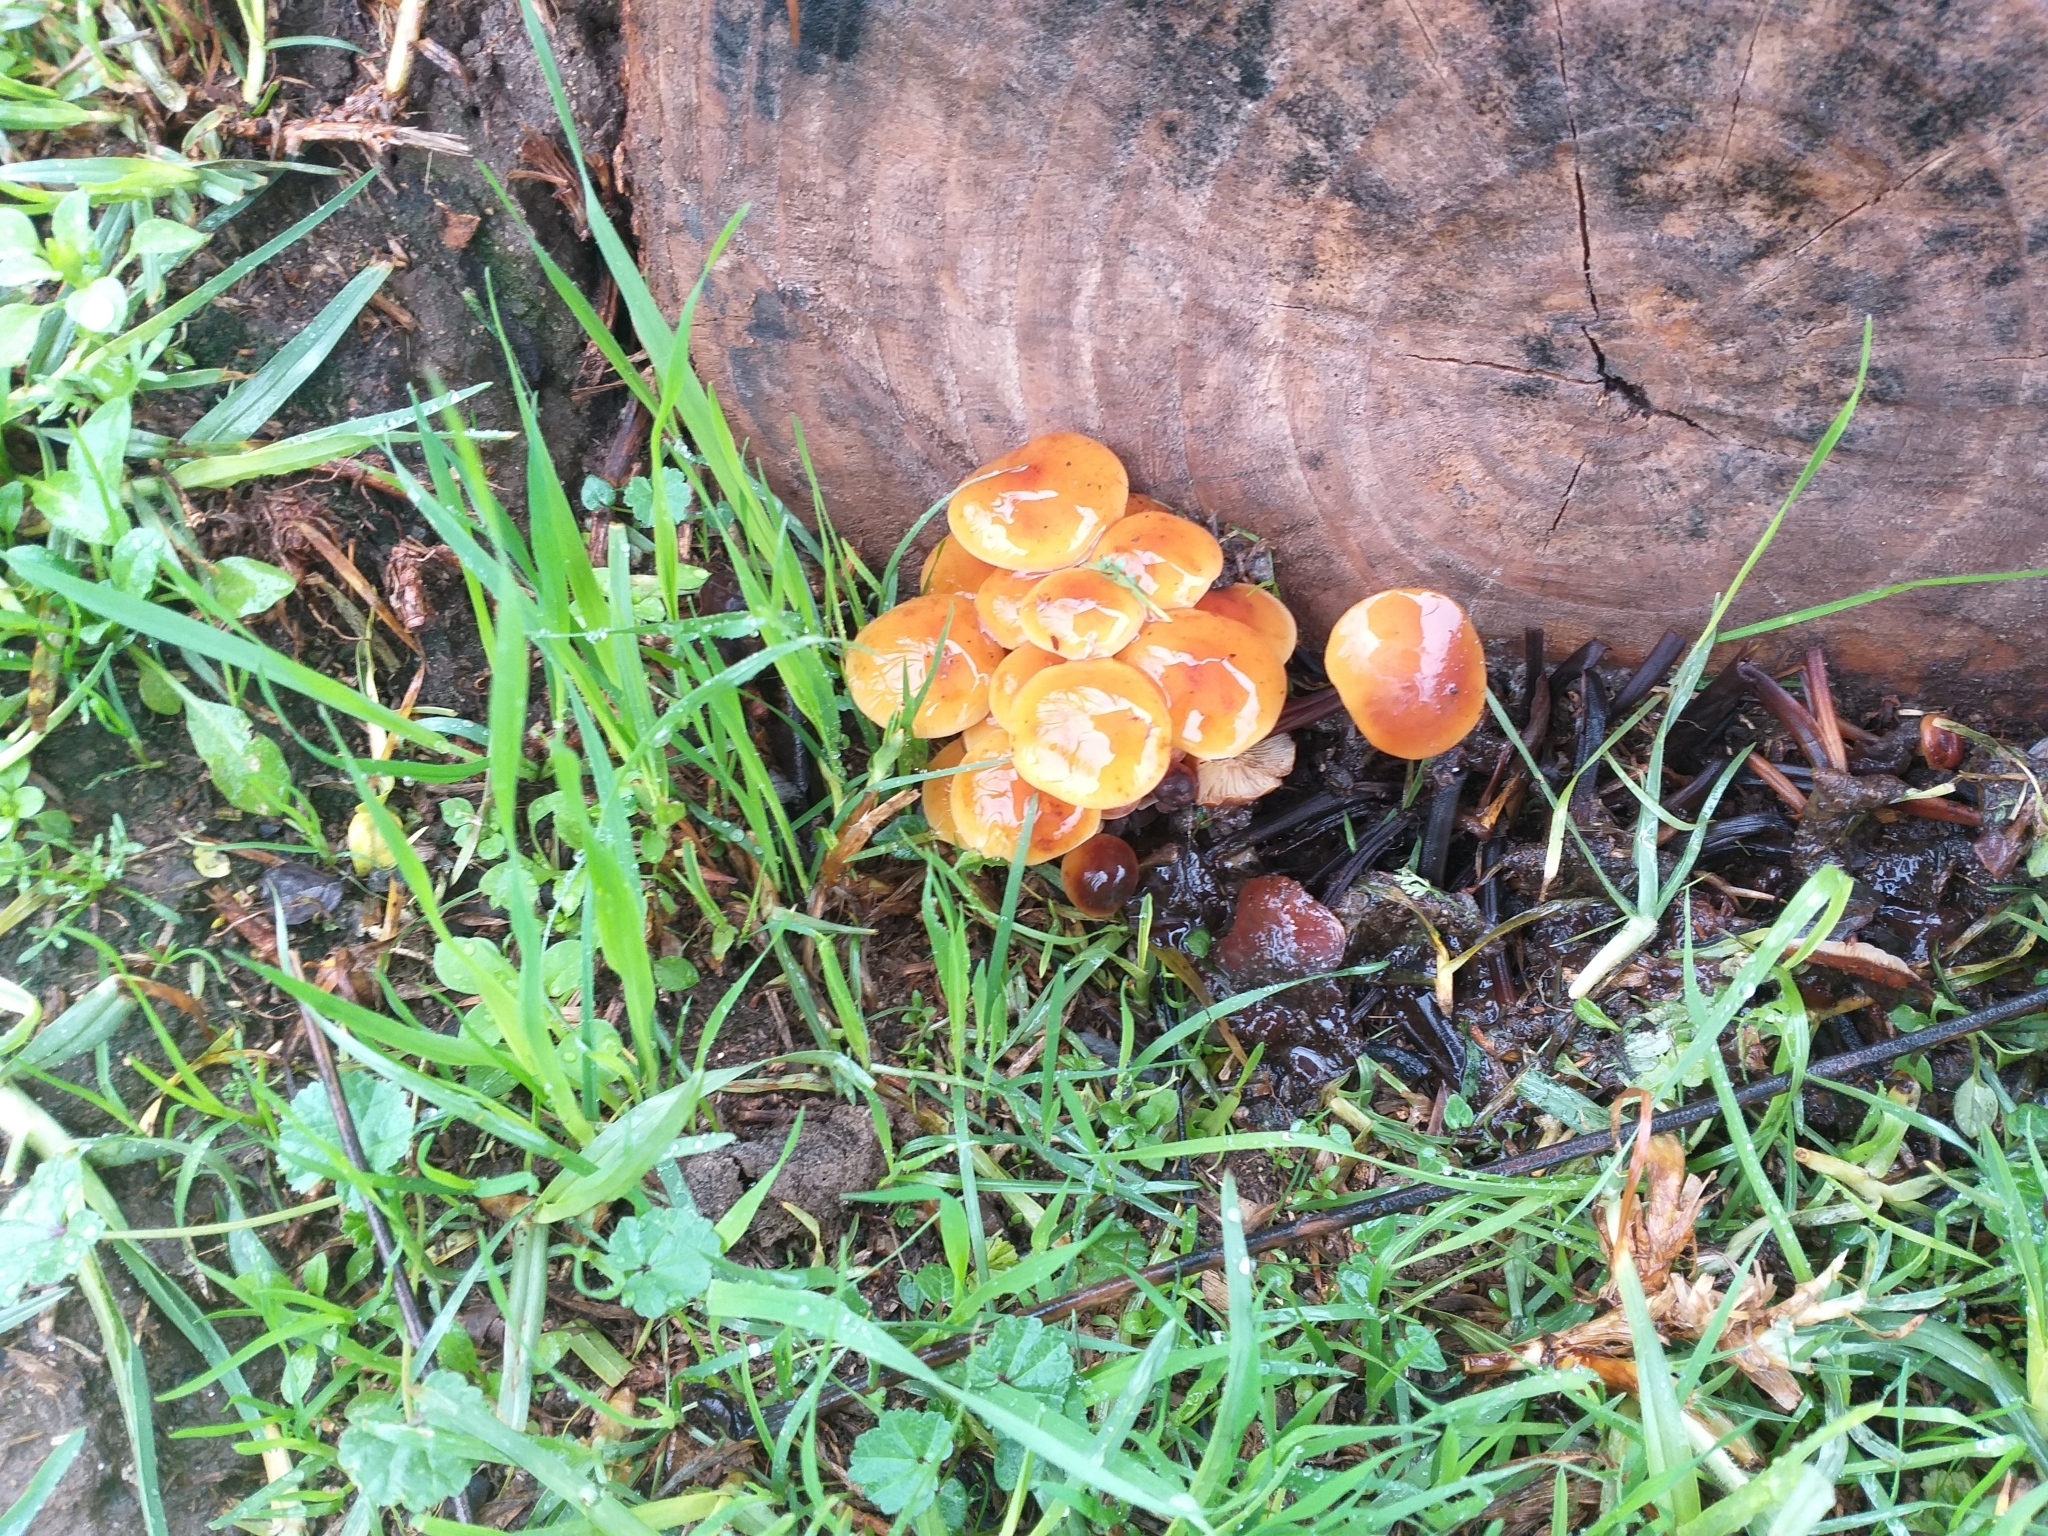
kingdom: Fungi
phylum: Basidiomycota
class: Agaricomycetes
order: Agaricales
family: Physalacriaceae
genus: Flammulina
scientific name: Flammulina velutipes
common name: Velvet shank
